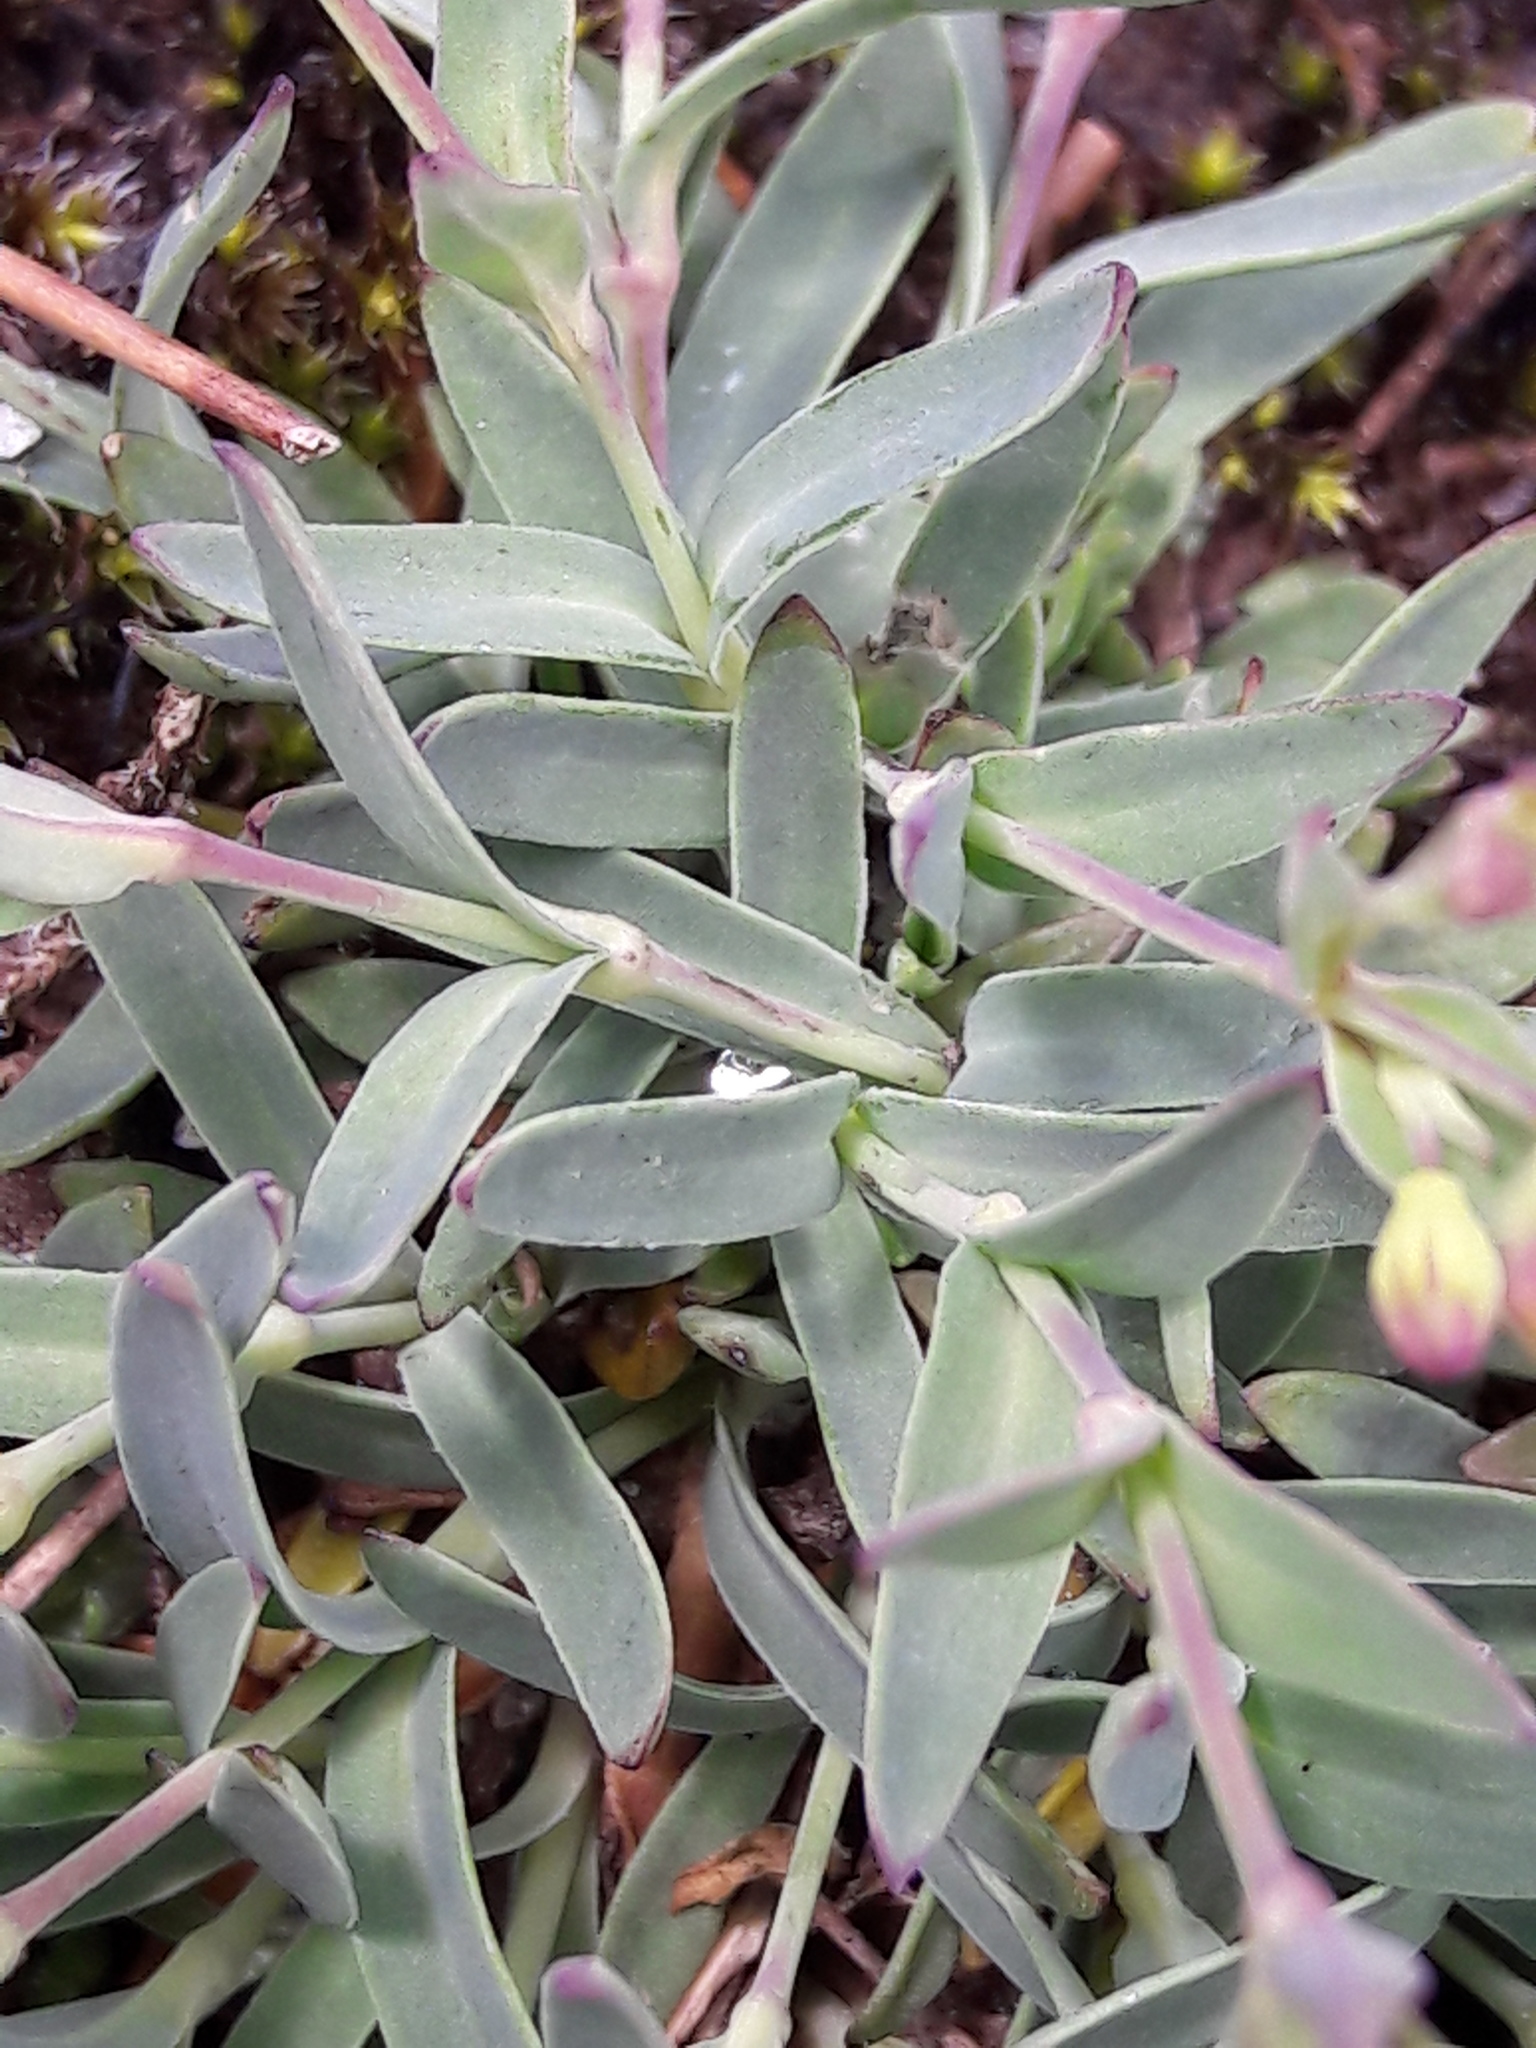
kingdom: Plantae
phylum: Tracheophyta
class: Magnoliopsida
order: Caryophyllales
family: Caryophyllaceae
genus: Atocion
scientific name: Atocion rupestre
